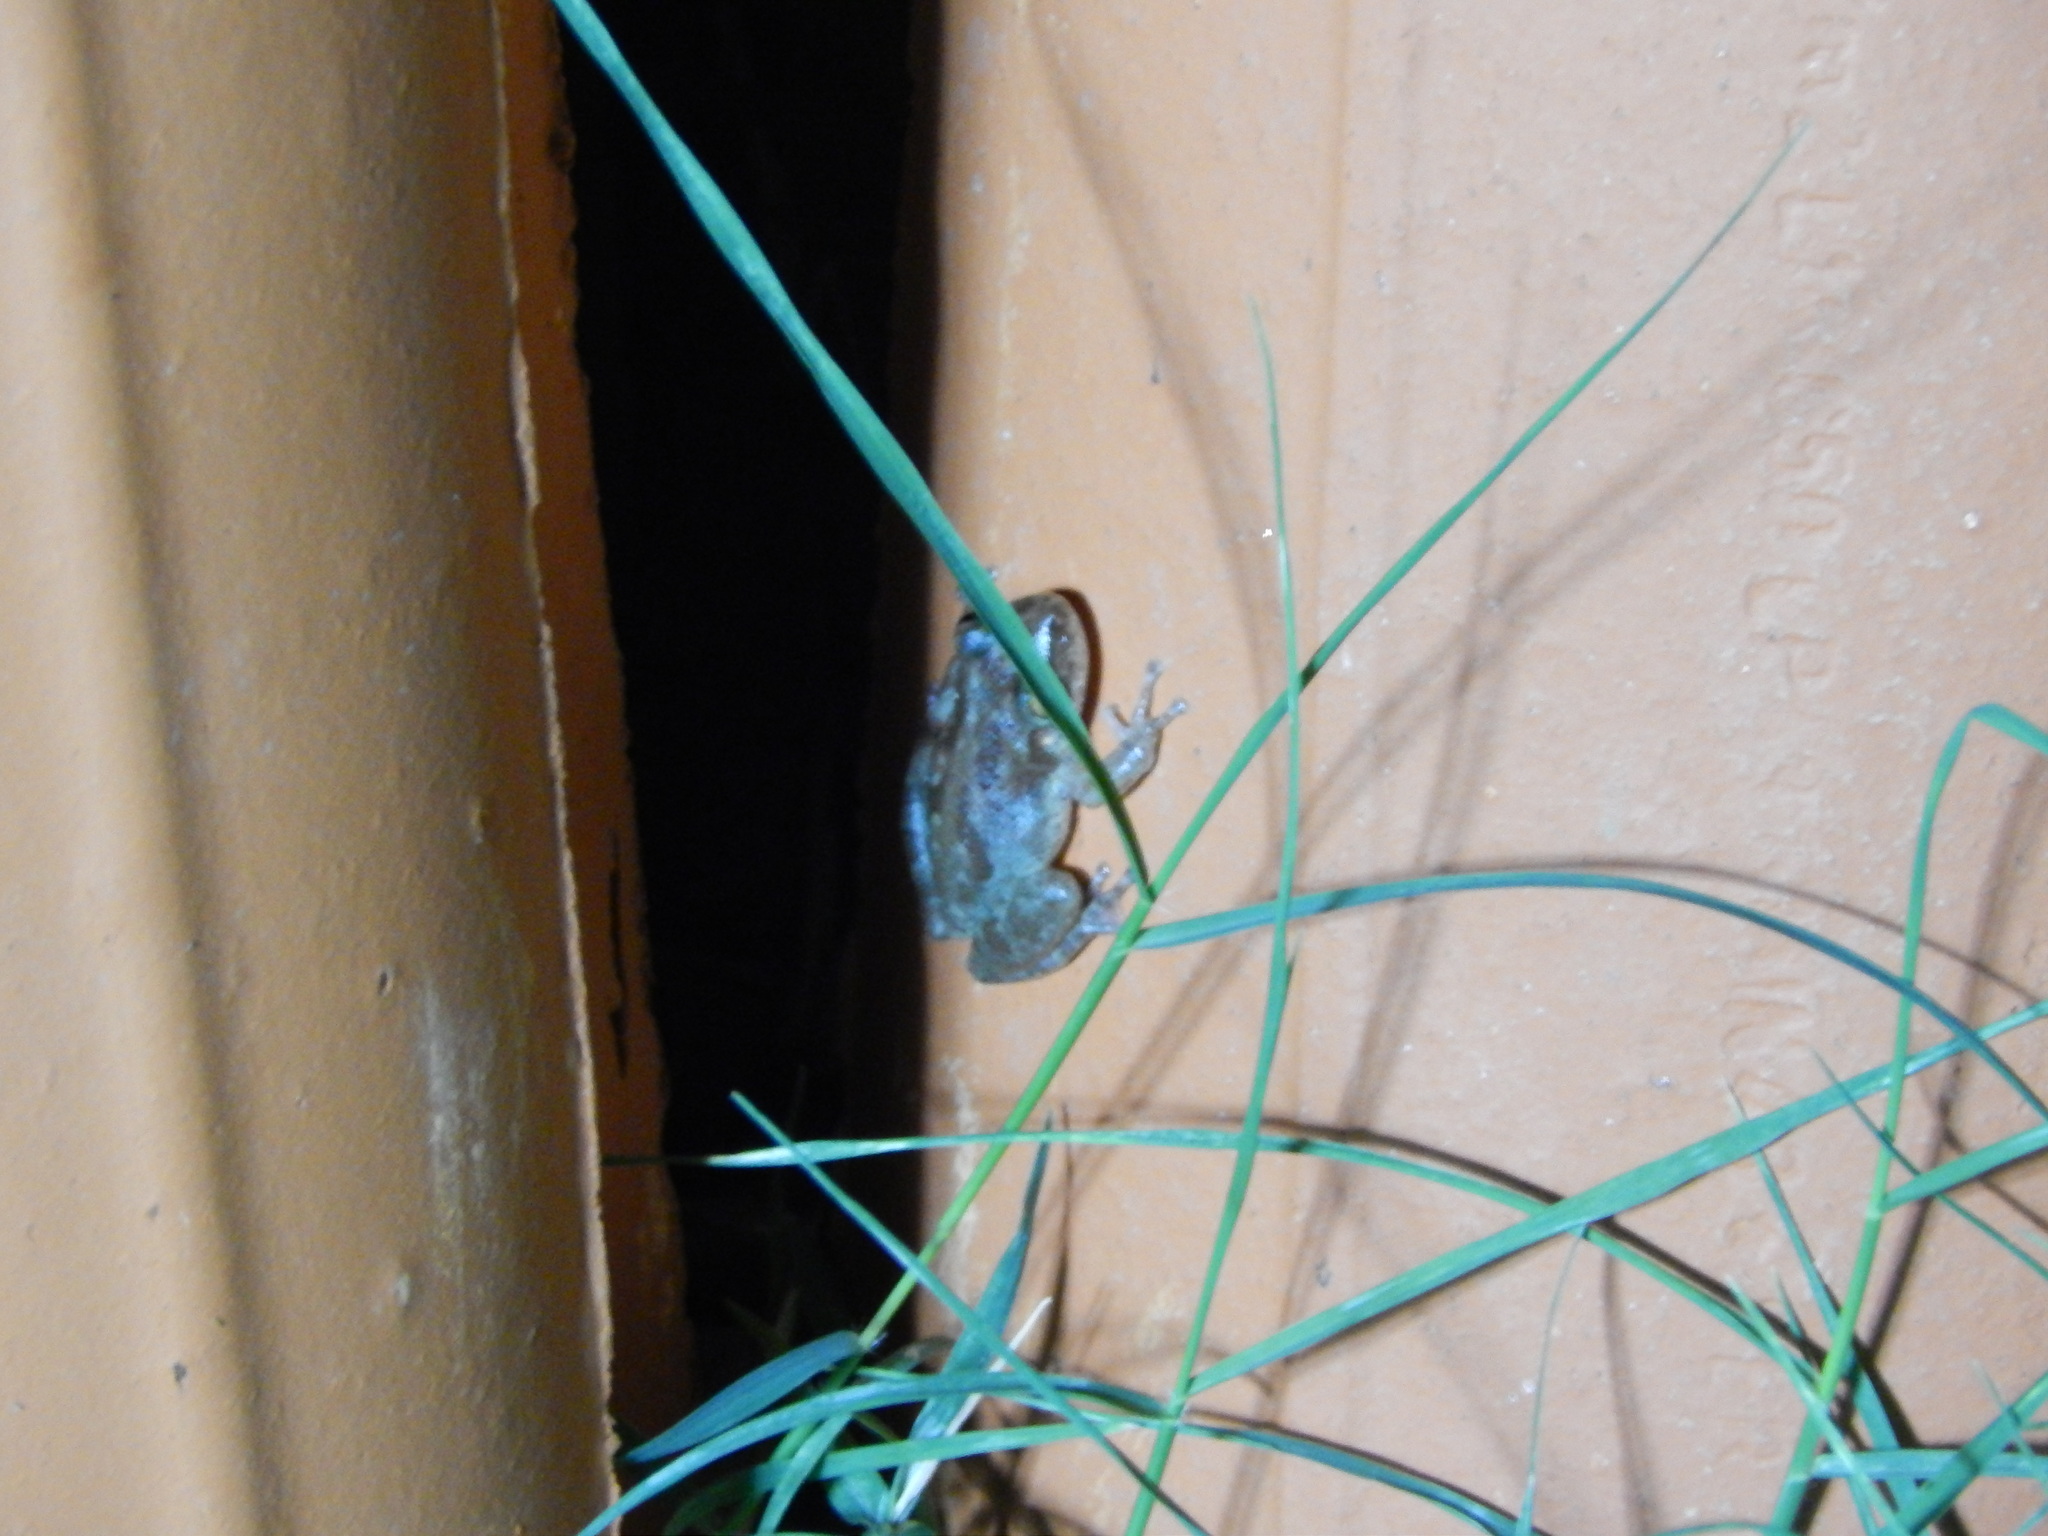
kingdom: Animalia
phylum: Chordata
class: Amphibia
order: Anura
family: Hylidae
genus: Scinax
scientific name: Scinax x-signatus
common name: Venezuela snouted treefrog
